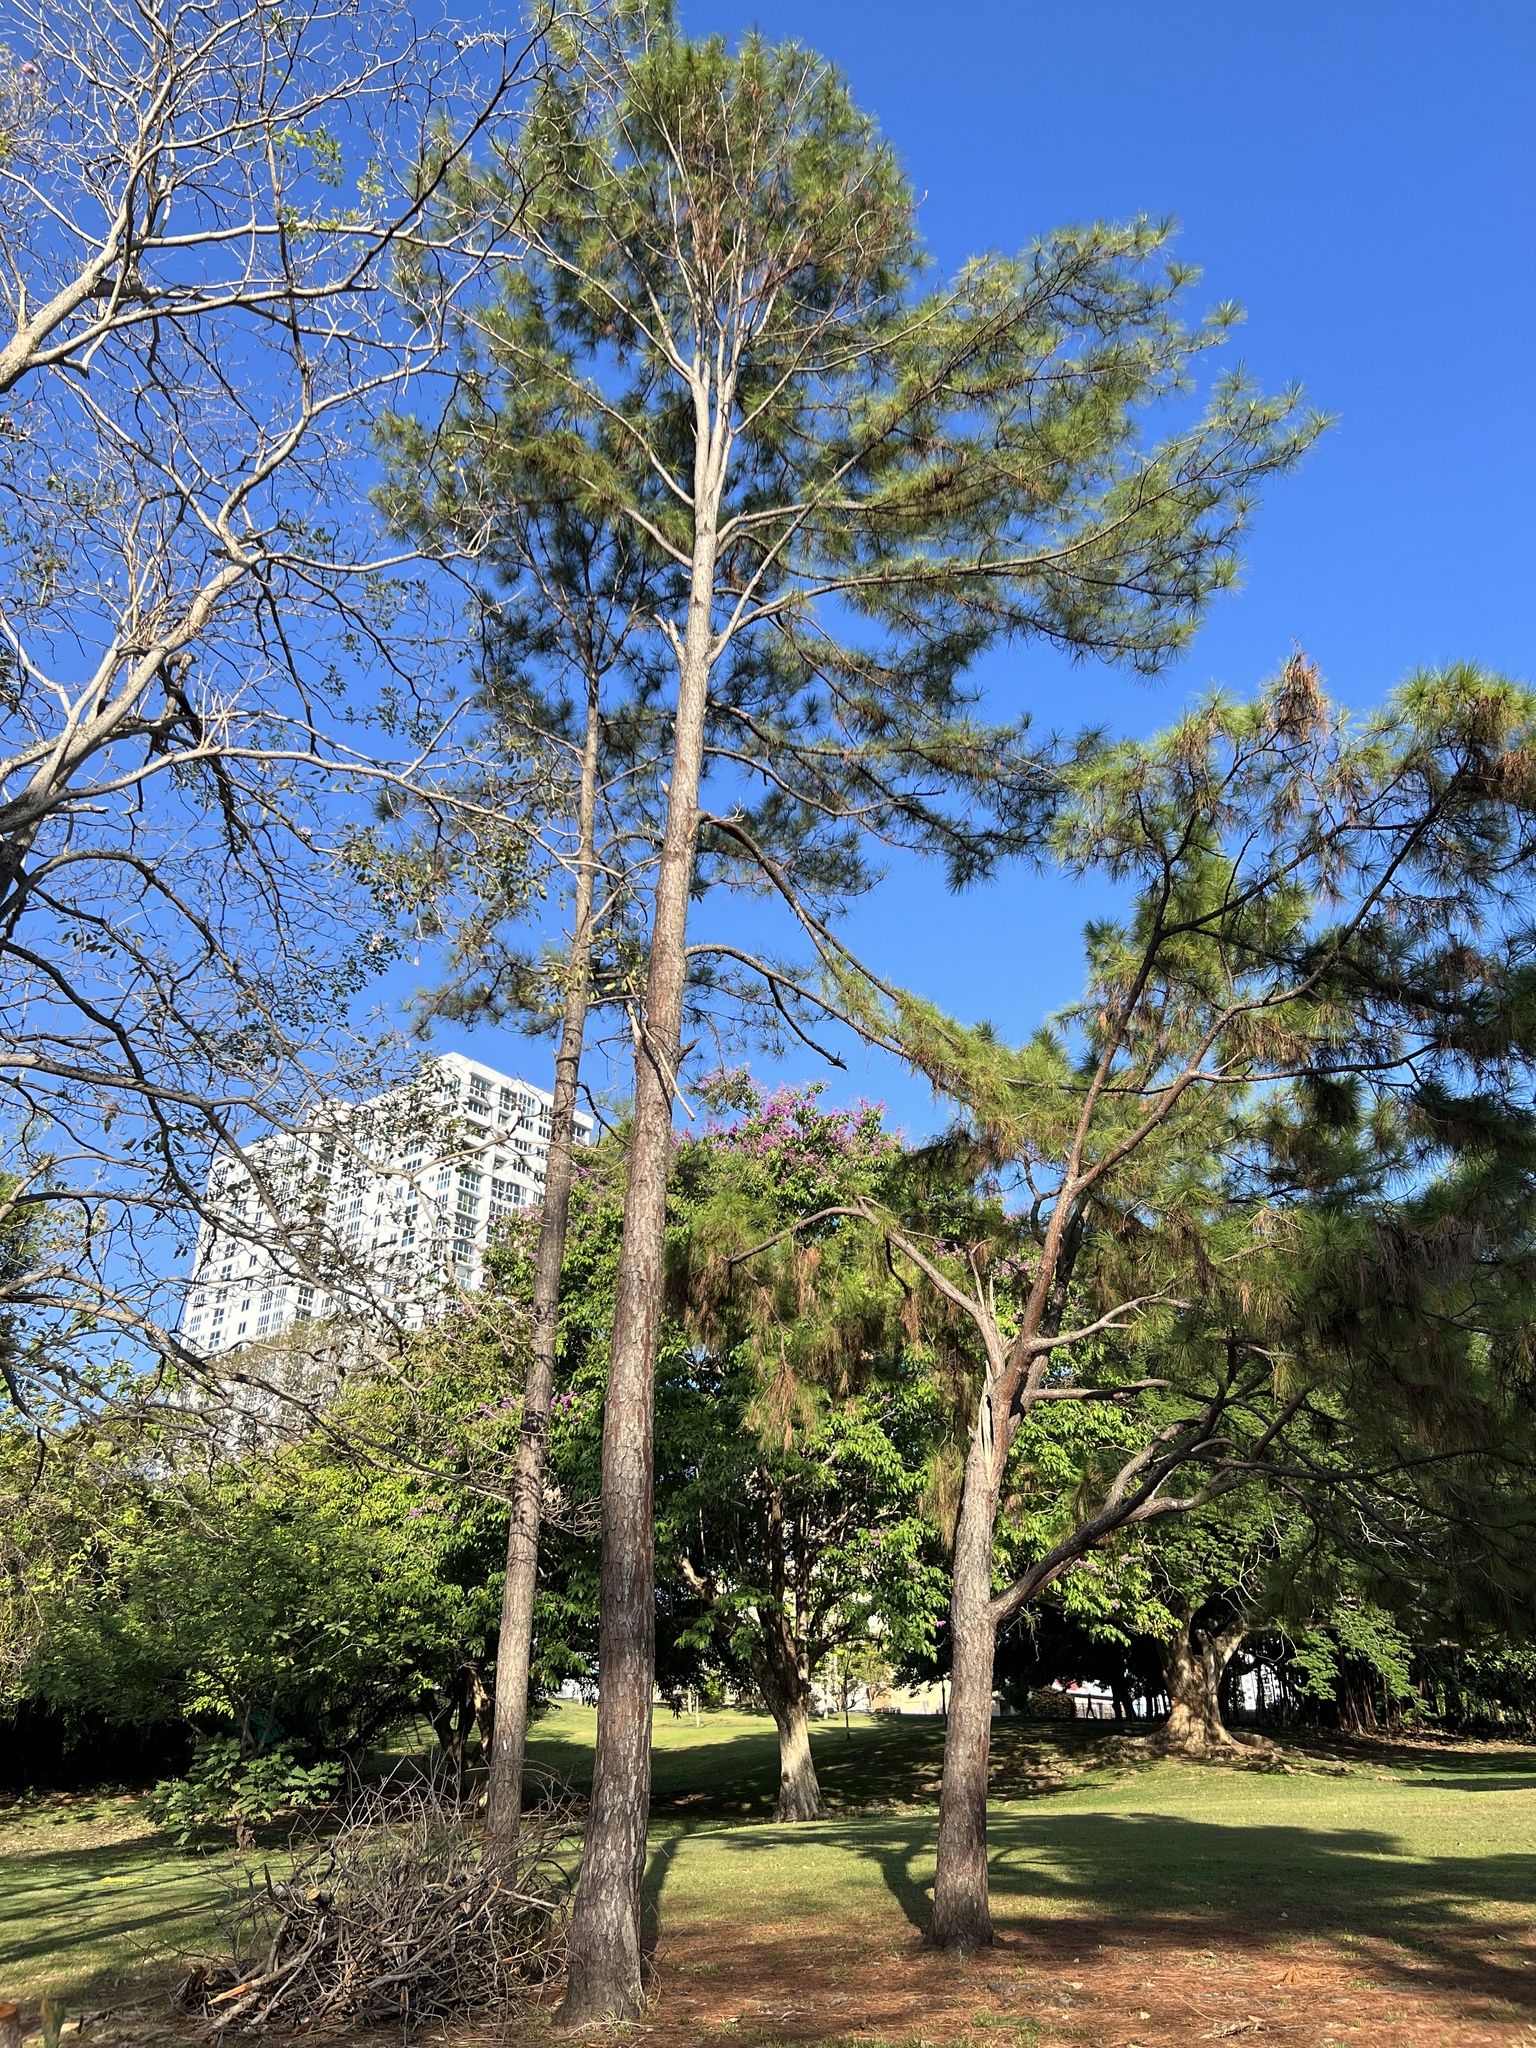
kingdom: Plantae
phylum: Tracheophyta
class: Pinopsida
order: Pinales
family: Pinaceae
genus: Pinus
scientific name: Pinus caribaea
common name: Caribbean pine
